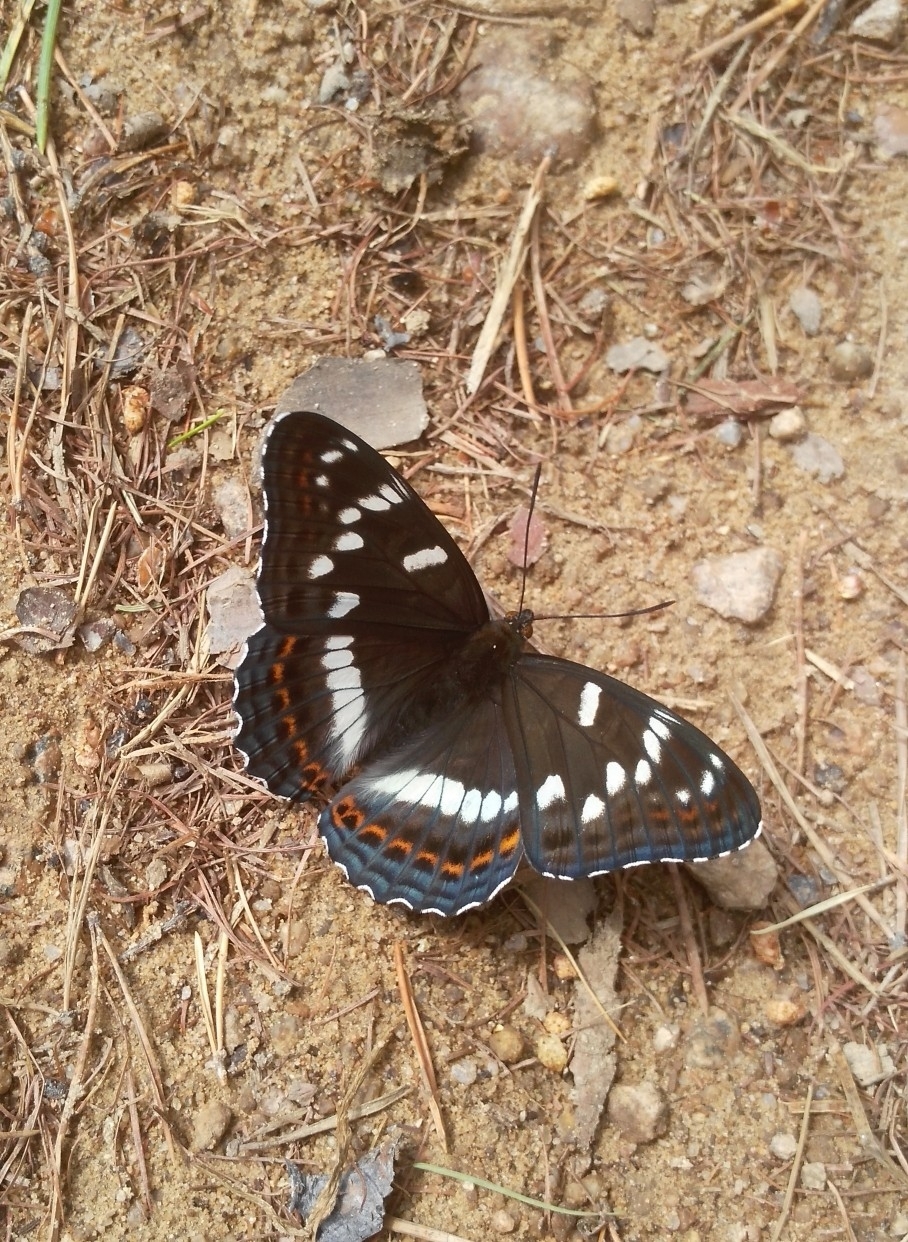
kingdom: Animalia
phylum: Arthropoda
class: Insecta
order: Lepidoptera
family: Nymphalidae
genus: Limenitis
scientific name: Limenitis populi
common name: Poplar admiral
